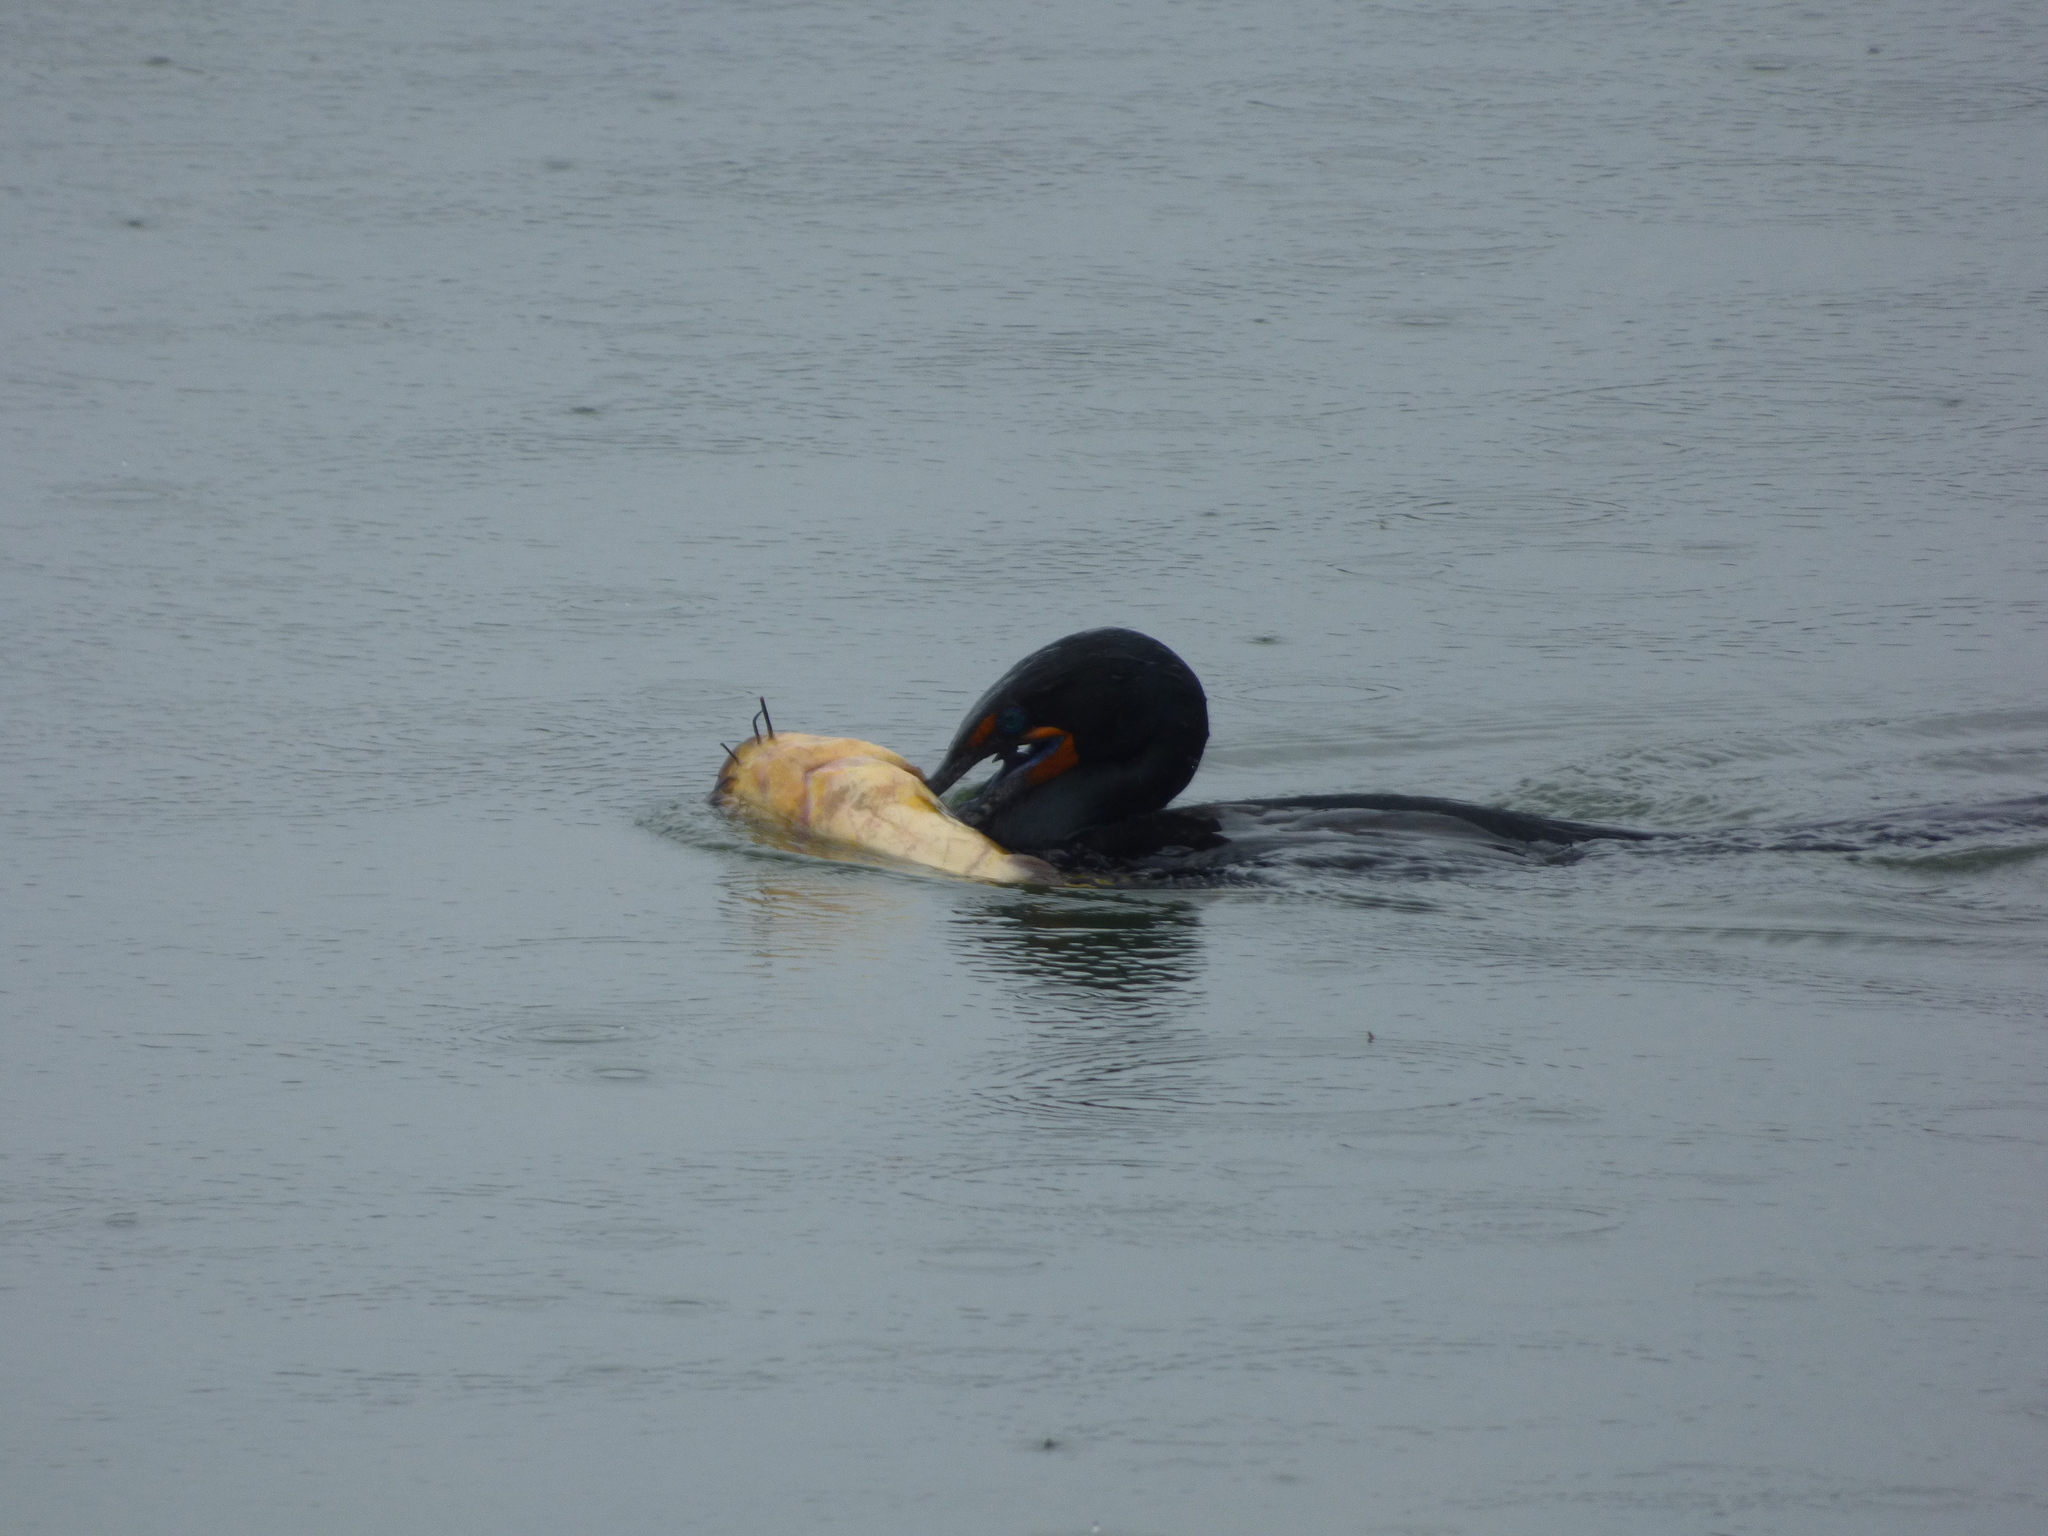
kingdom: Animalia
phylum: Chordata
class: Aves
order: Suliformes
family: Phalacrocoracidae
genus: Phalacrocorax
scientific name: Phalacrocorax auritus
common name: Double-crested cormorant
